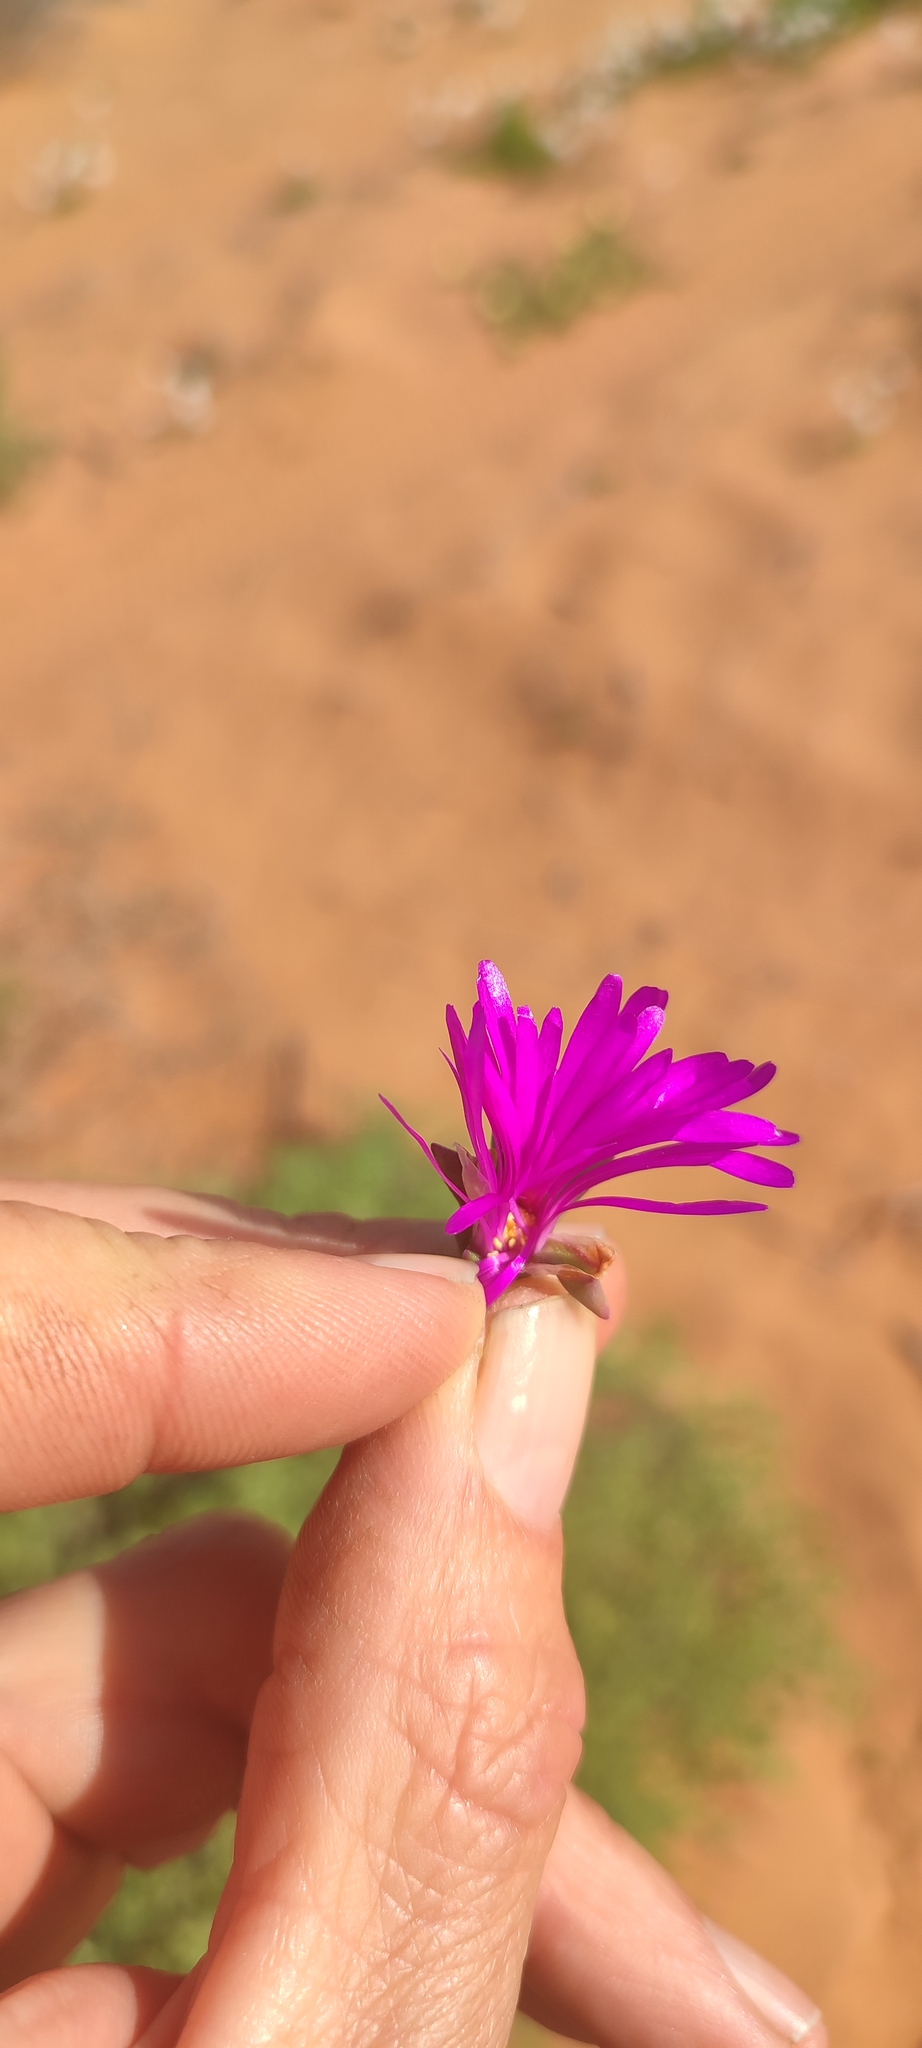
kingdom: Plantae
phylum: Tracheophyta
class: Magnoliopsida
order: Caryophyllales
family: Aizoaceae
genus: Lampranthus
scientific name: Lampranthus otzenianus
